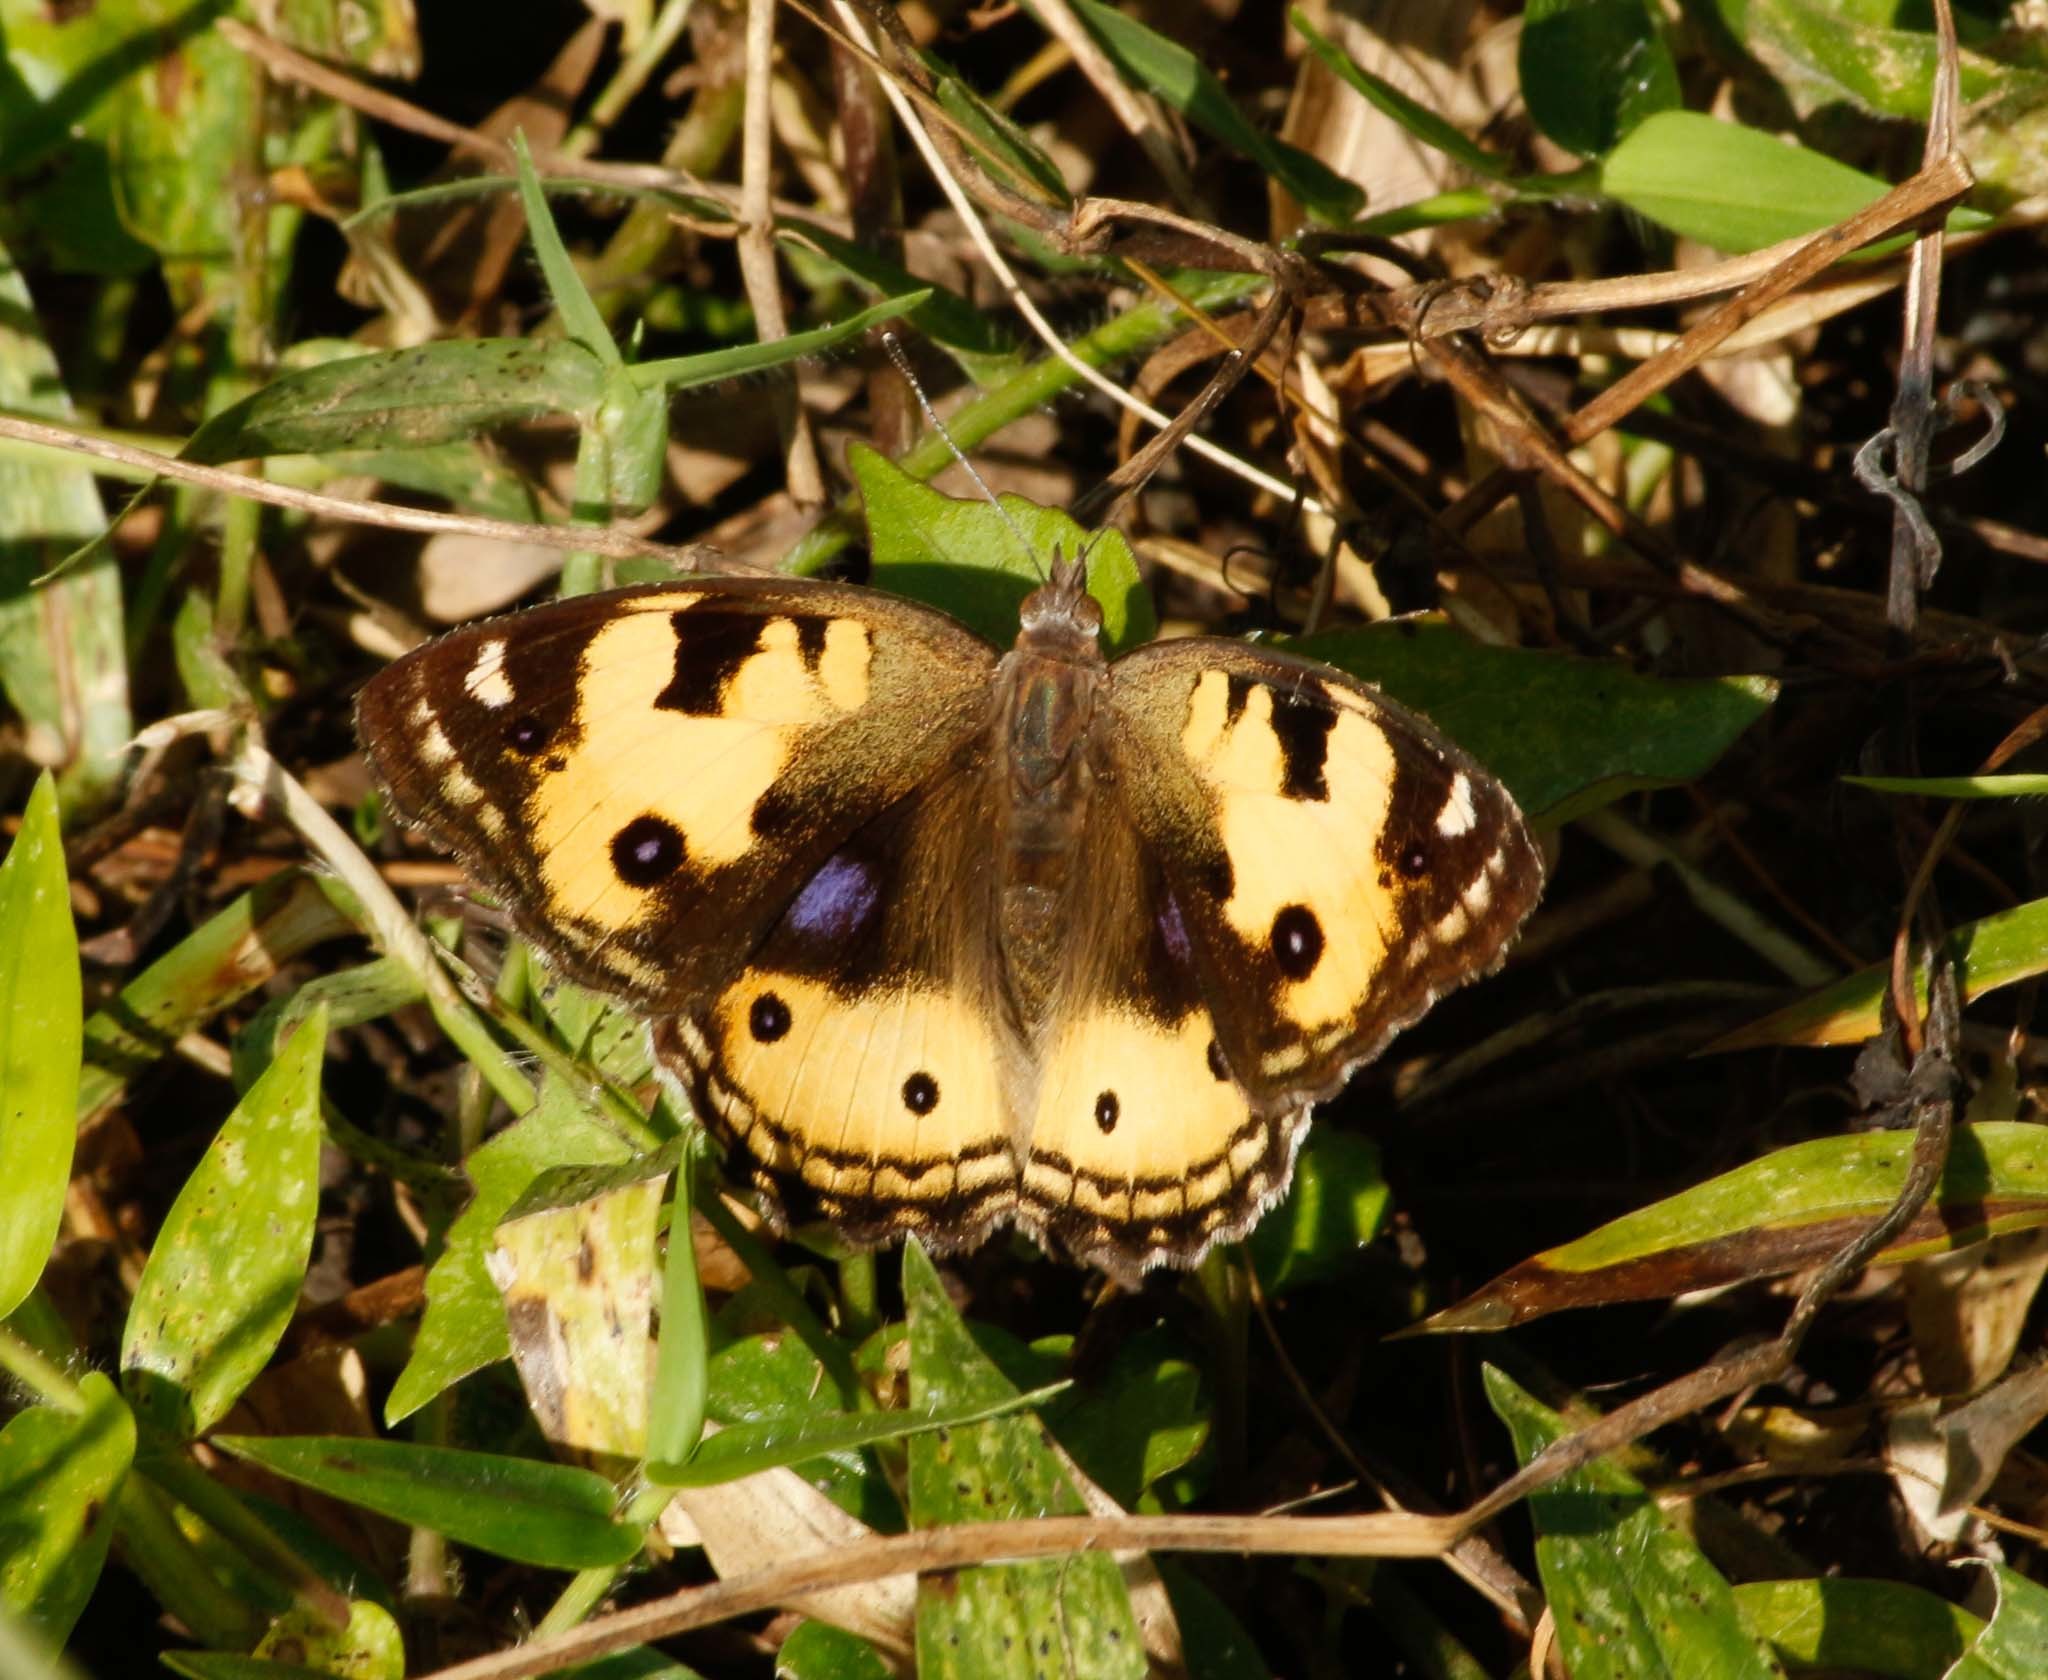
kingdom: Animalia
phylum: Arthropoda
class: Insecta
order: Lepidoptera
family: Nymphalidae
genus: Junonia
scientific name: Junonia hierta
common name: Yellow pansy
